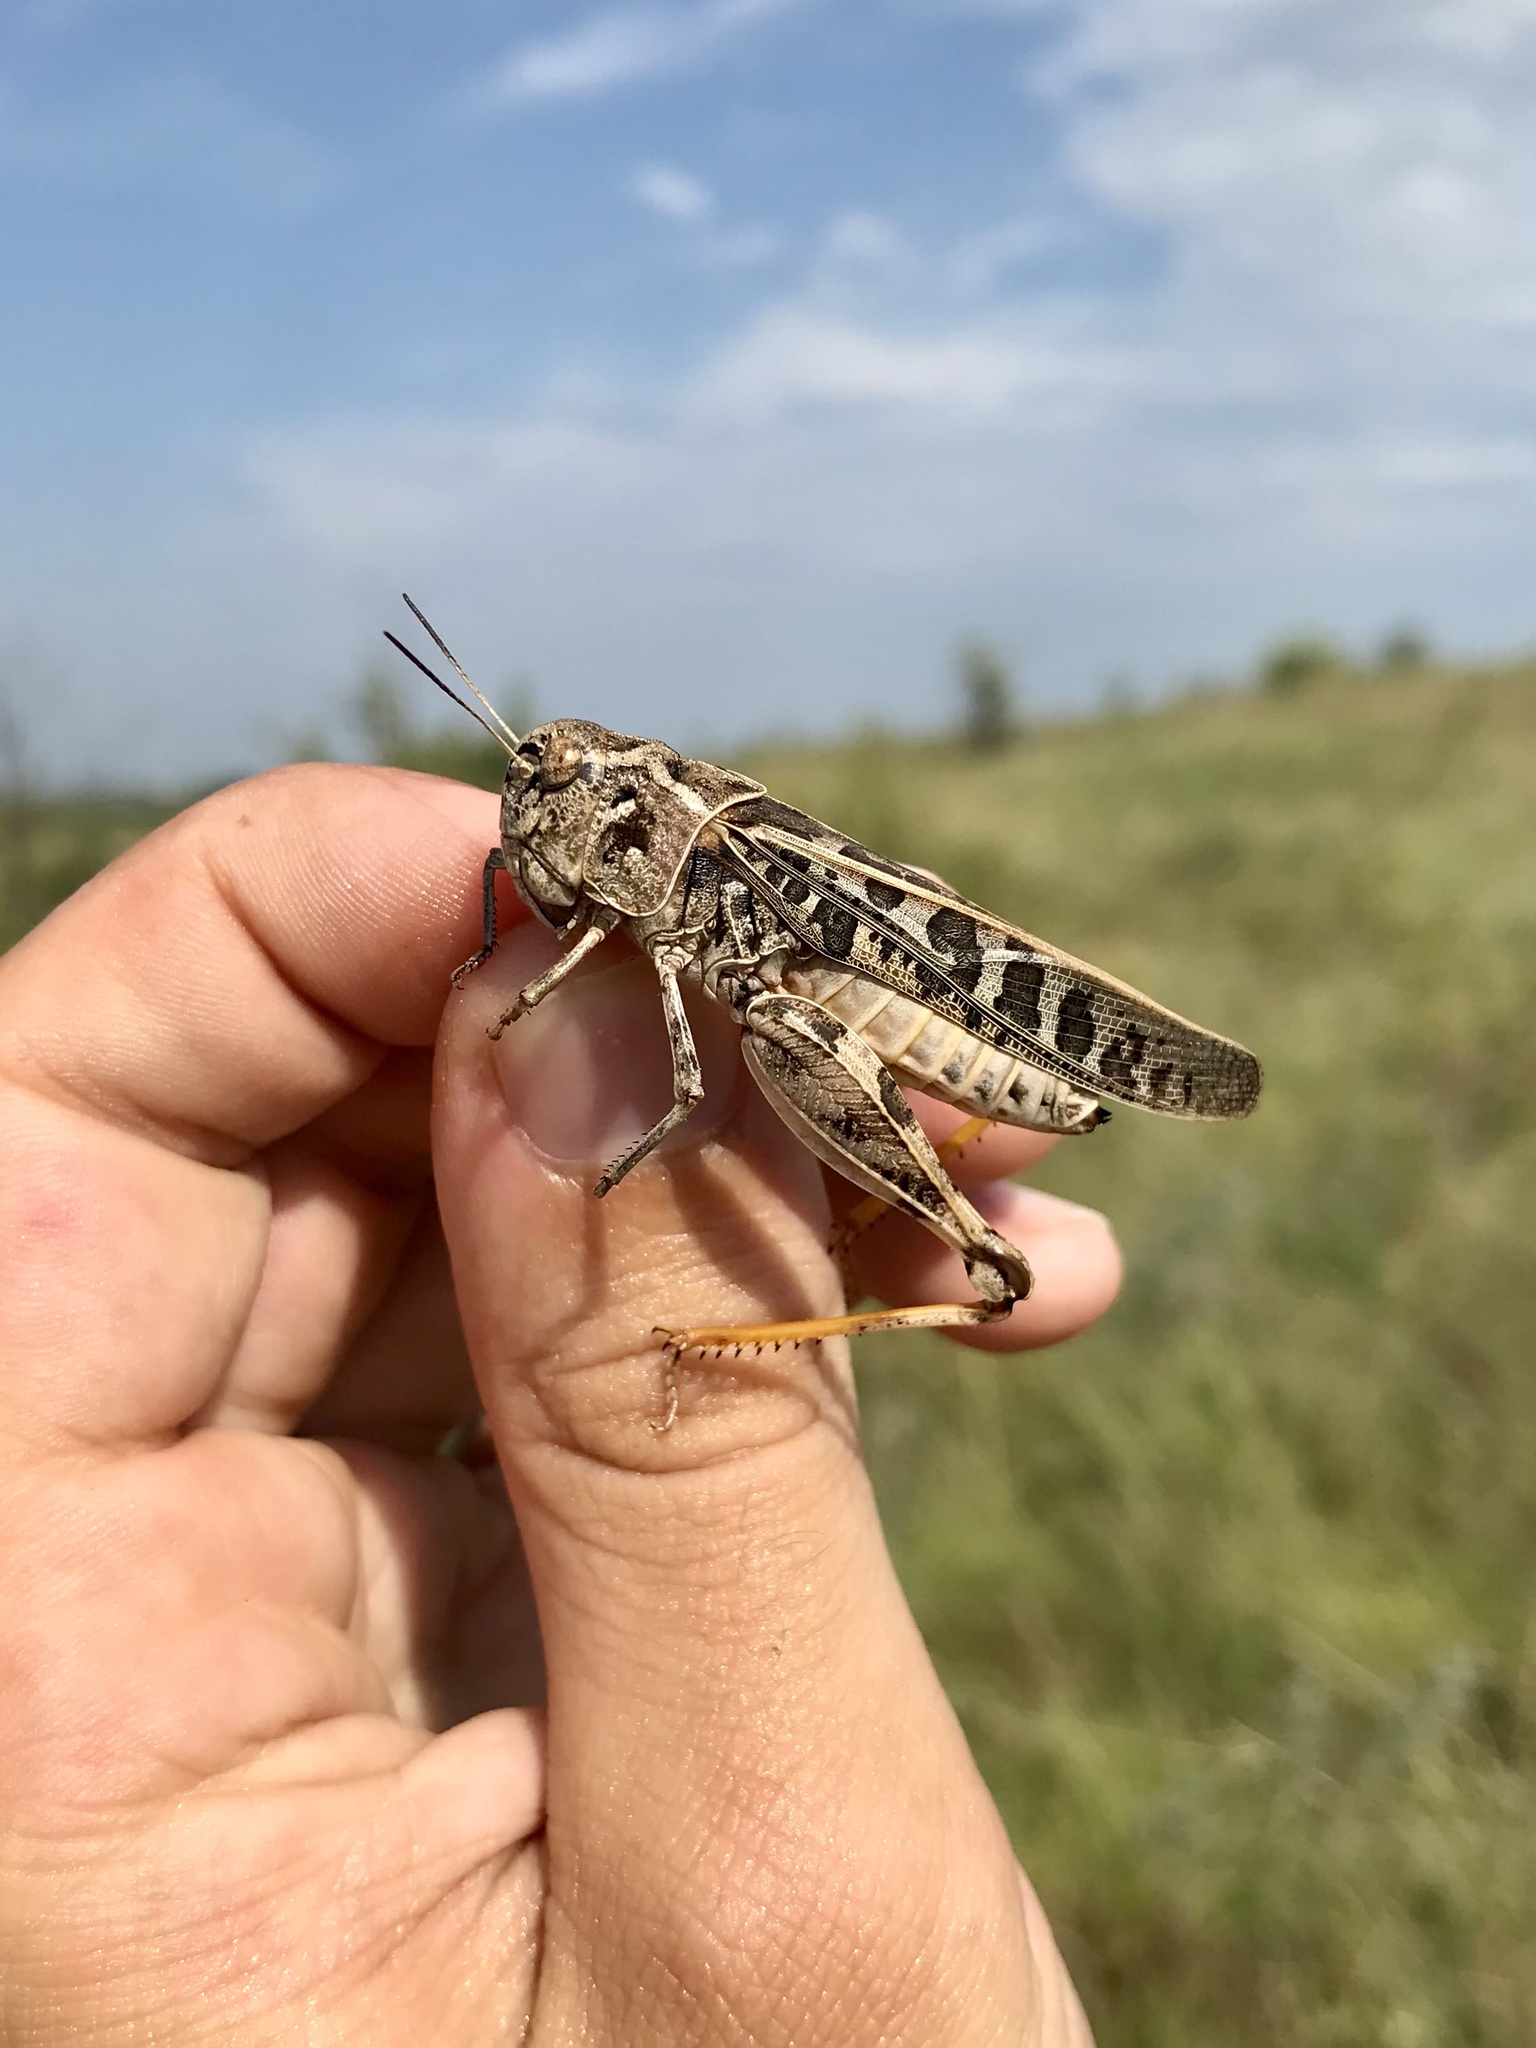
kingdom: Animalia
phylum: Arthropoda
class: Insecta
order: Orthoptera
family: Acrididae
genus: Hippiscus
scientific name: Hippiscus ocelote
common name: Wrinkled grasshopper
